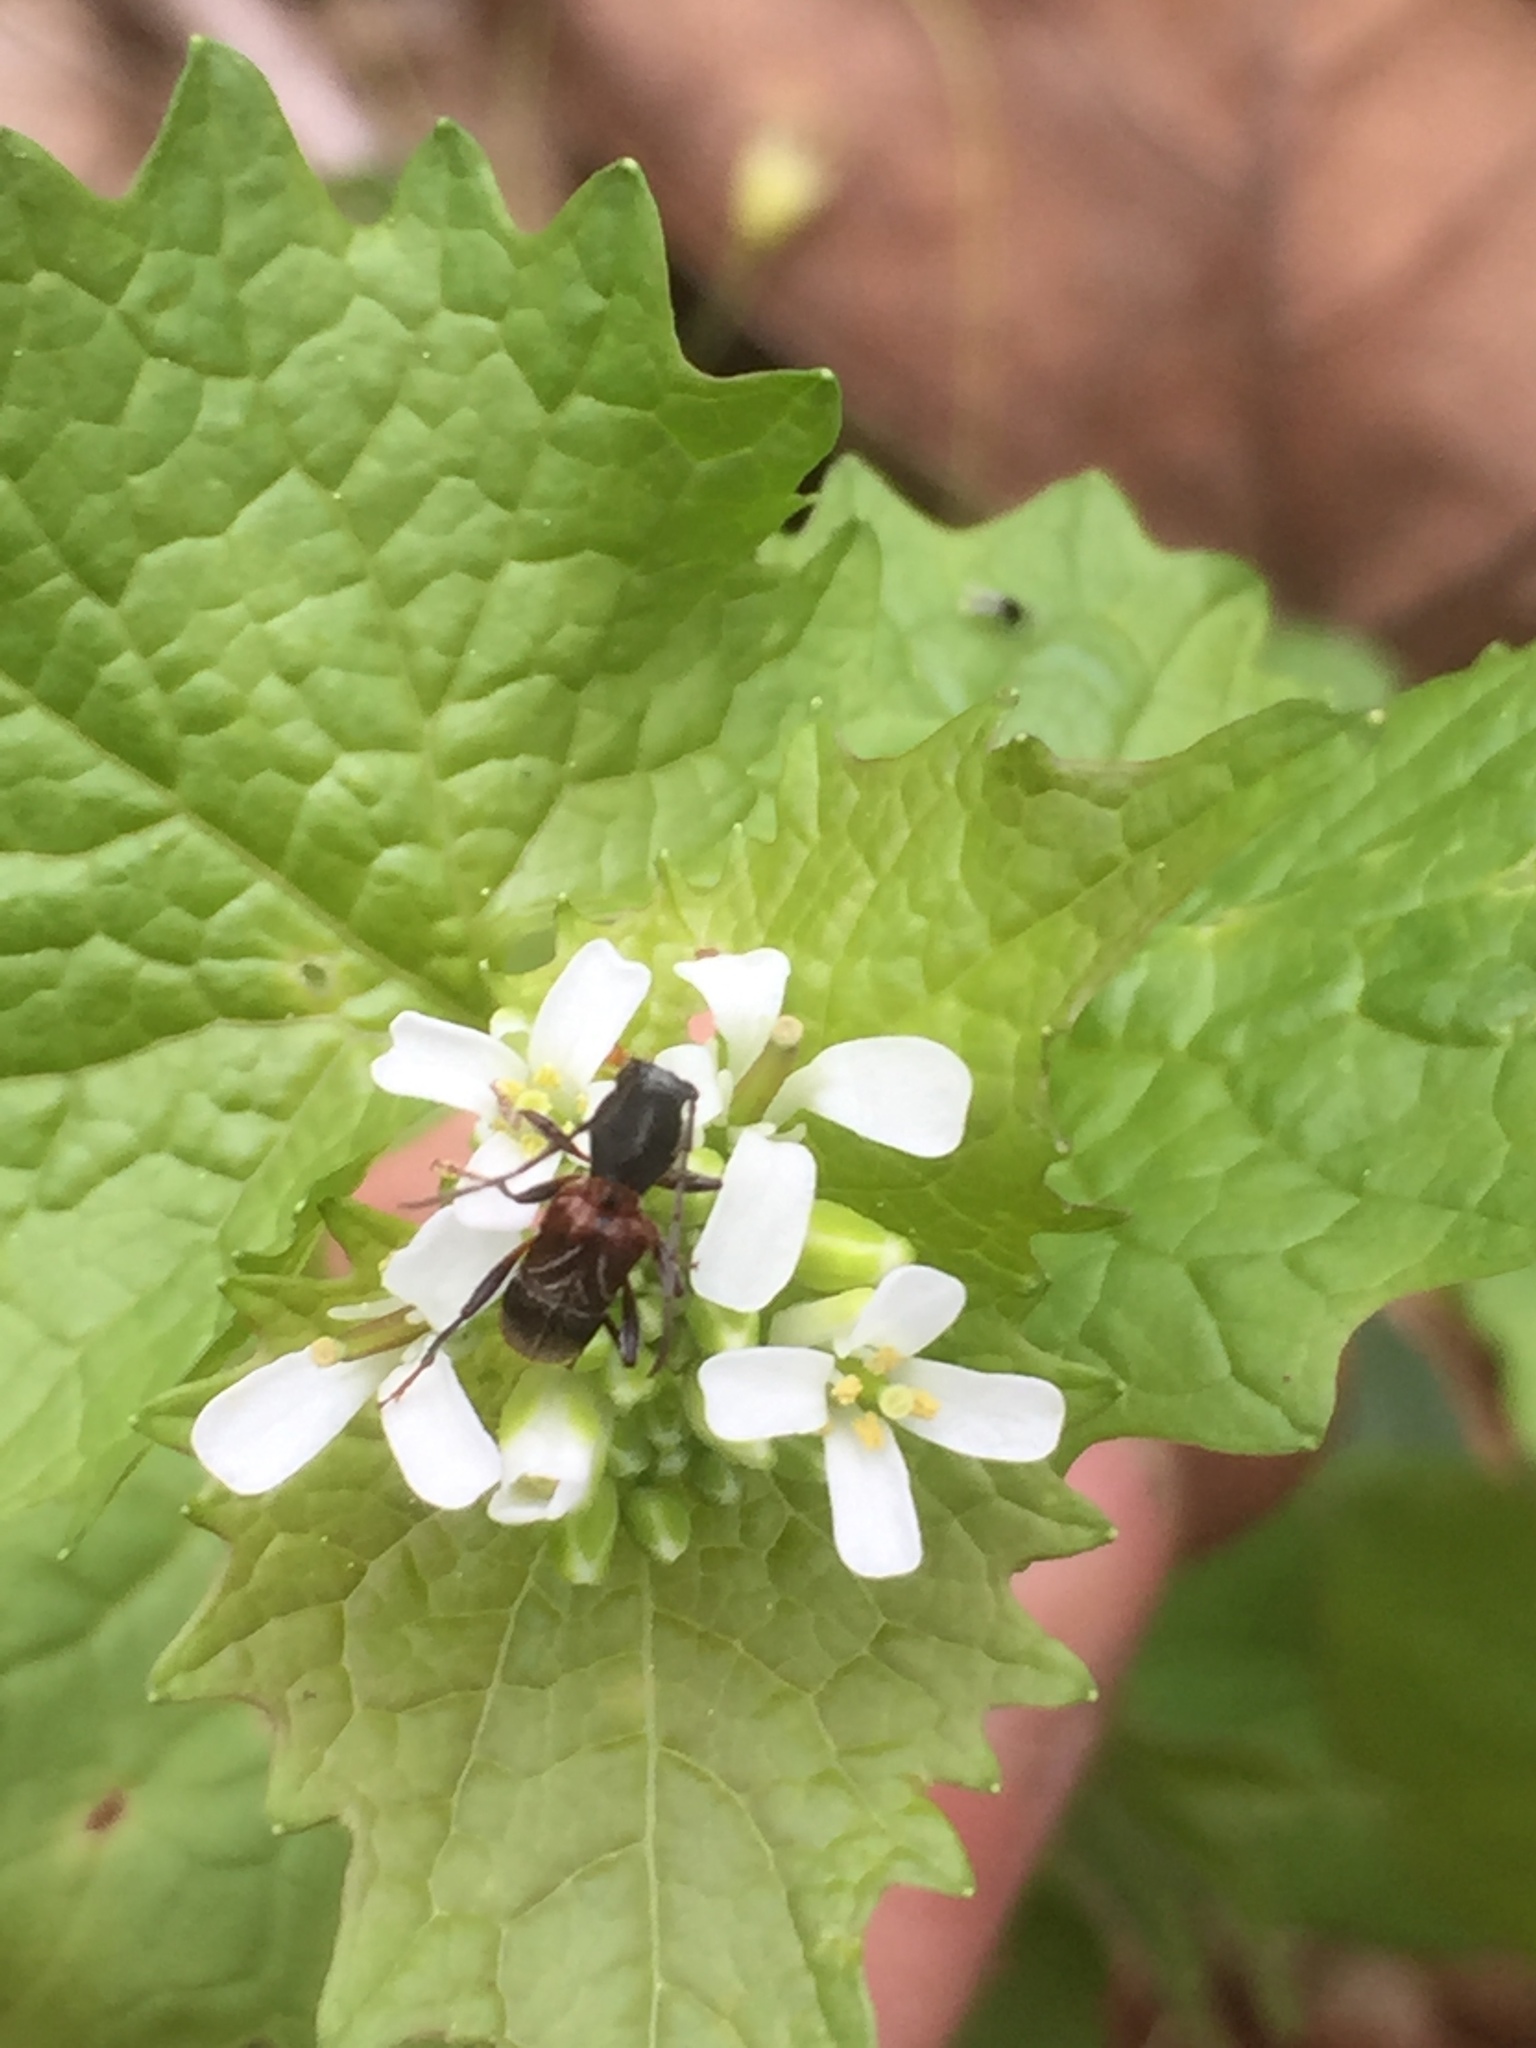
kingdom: Animalia
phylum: Arthropoda
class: Insecta
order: Coleoptera
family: Cerambycidae
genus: Cyrtophorus
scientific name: Cyrtophorus verrucosus
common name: Ant-like longhorn beetle
